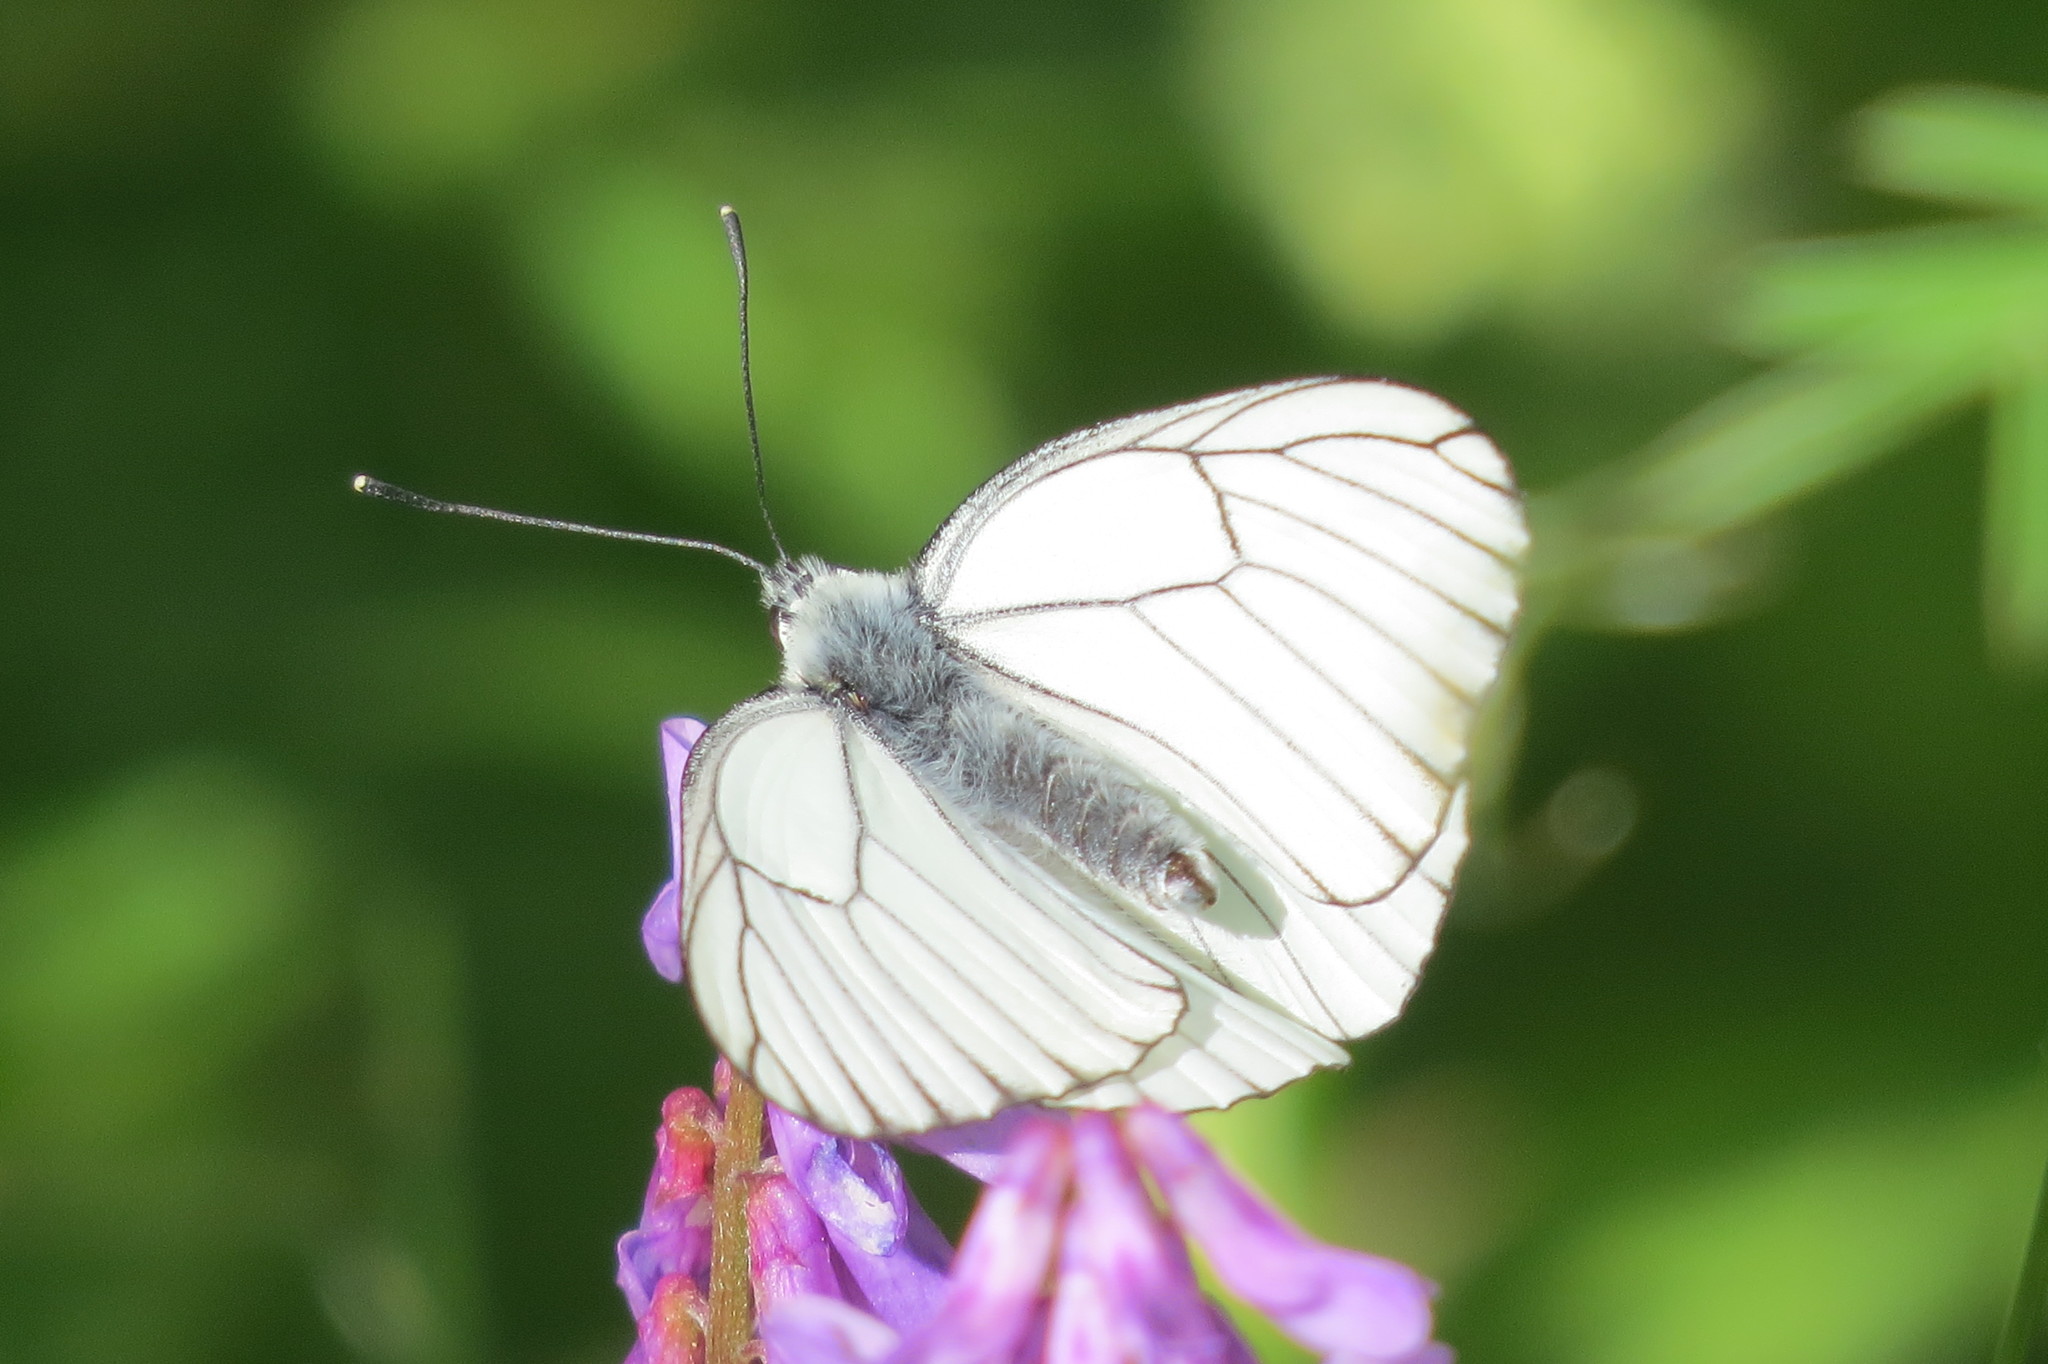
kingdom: Animalia
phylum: Arthropoda
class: Insecta
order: Lepidoptera
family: Pieridae
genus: Aporia
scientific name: Aporia crataegi
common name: Black-veined white
